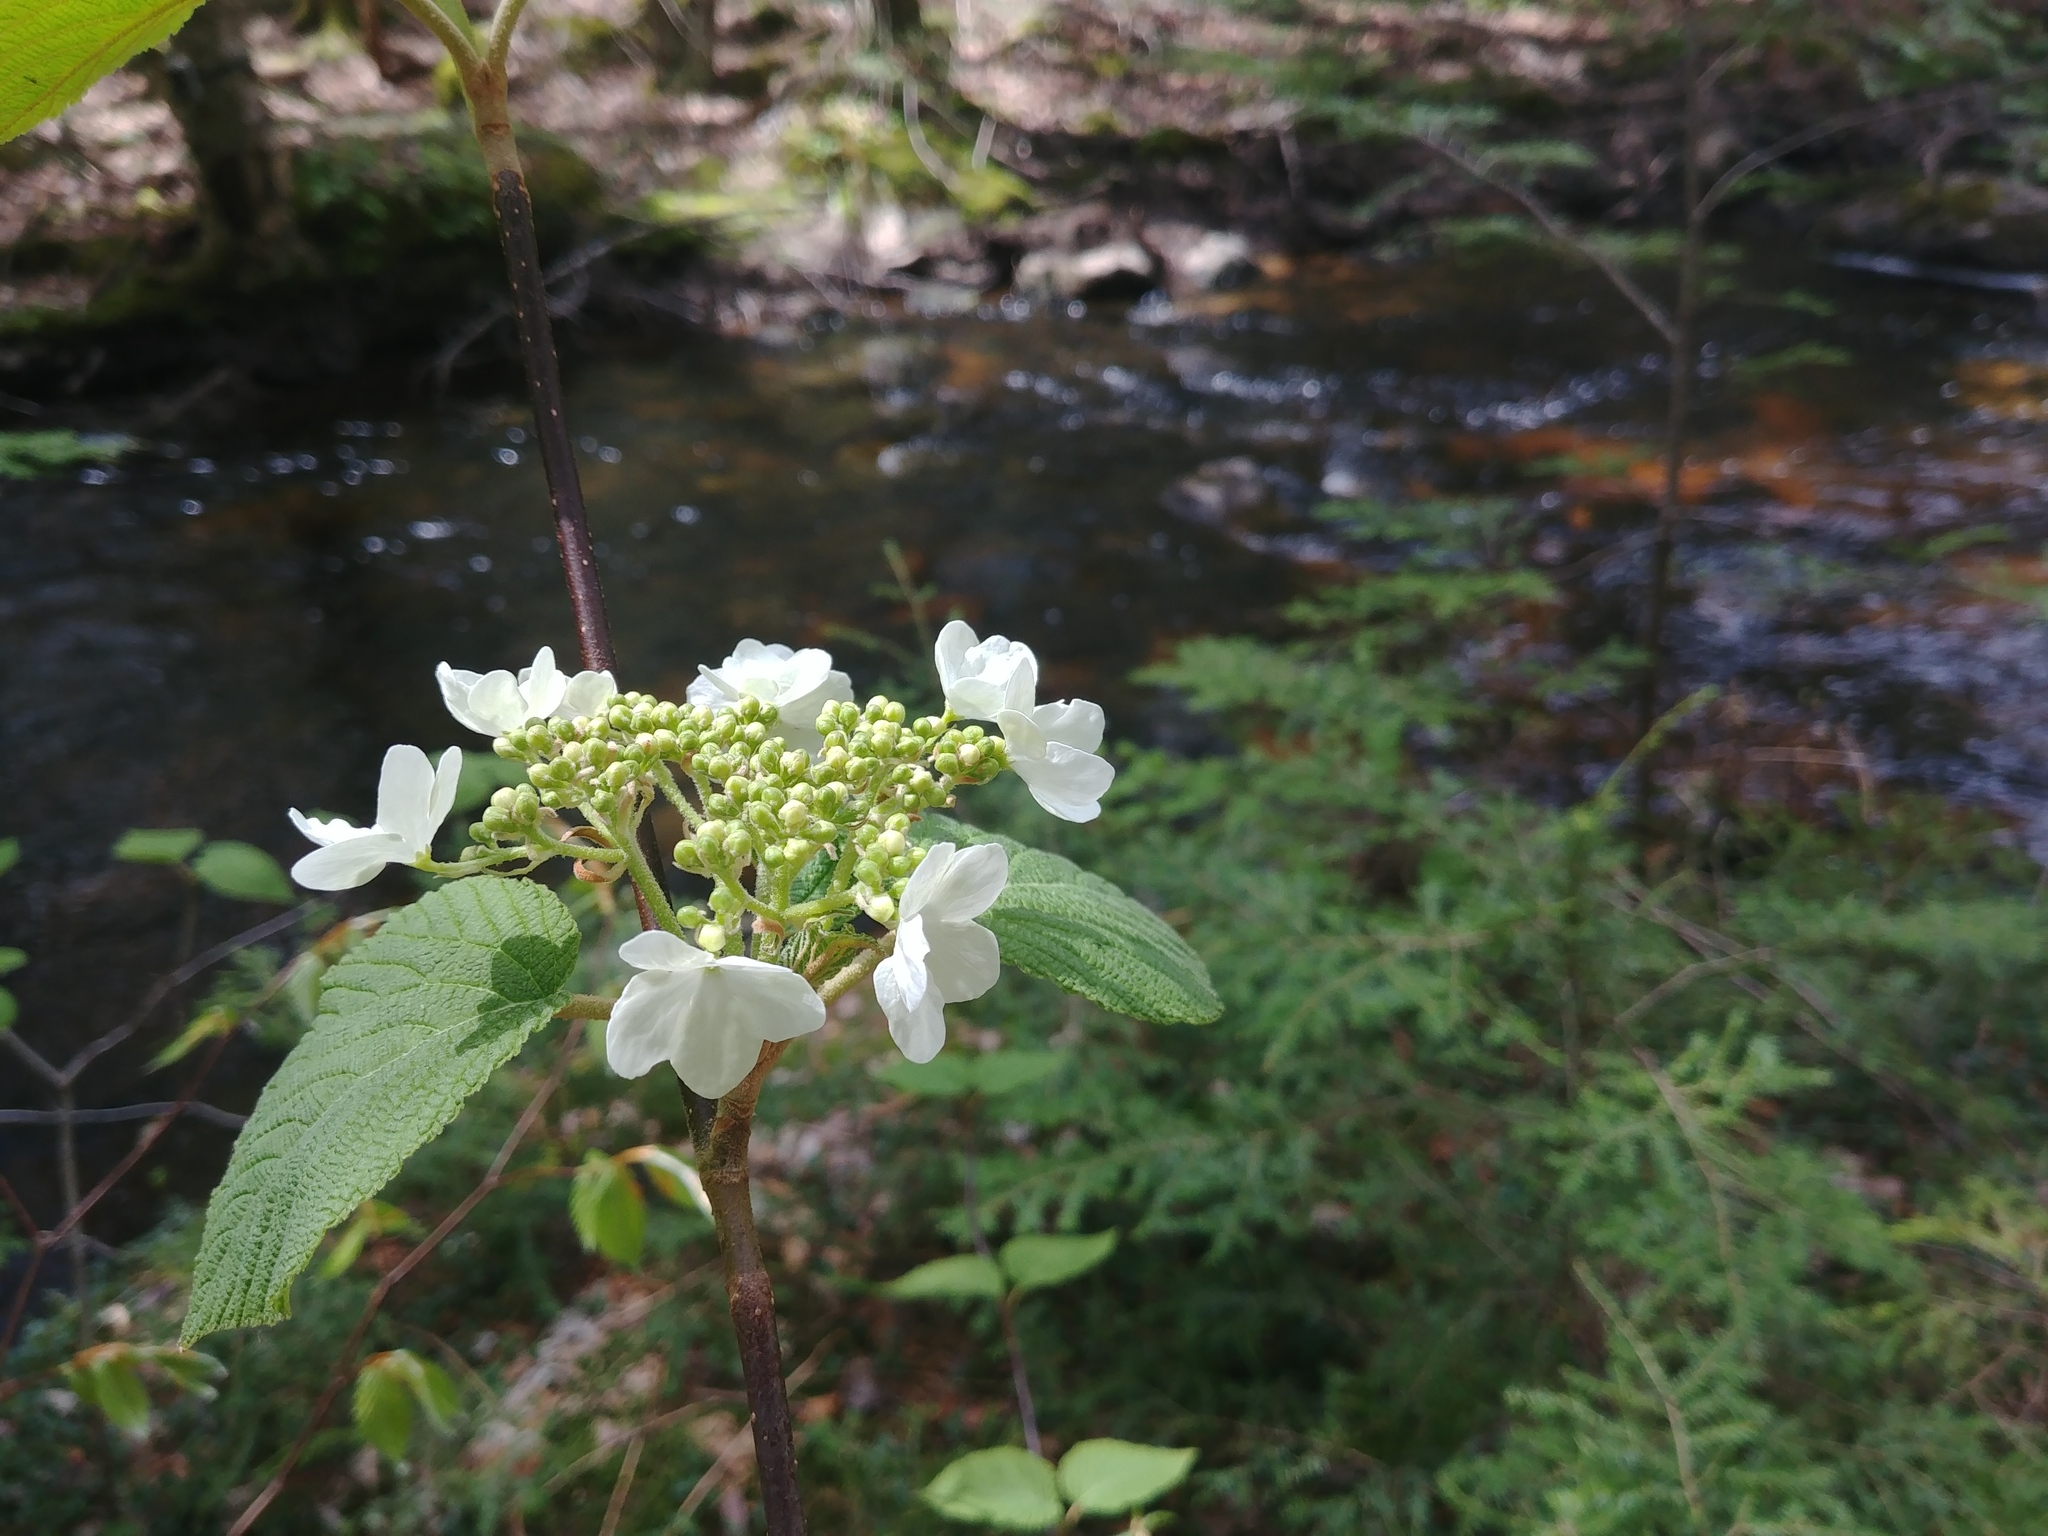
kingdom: Plantae
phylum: Tracheophyta
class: Magnoliopsida
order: Dipsacales
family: Viburnaceae
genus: Viburnum
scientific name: Viburnum lantanoides
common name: Hobblebush
